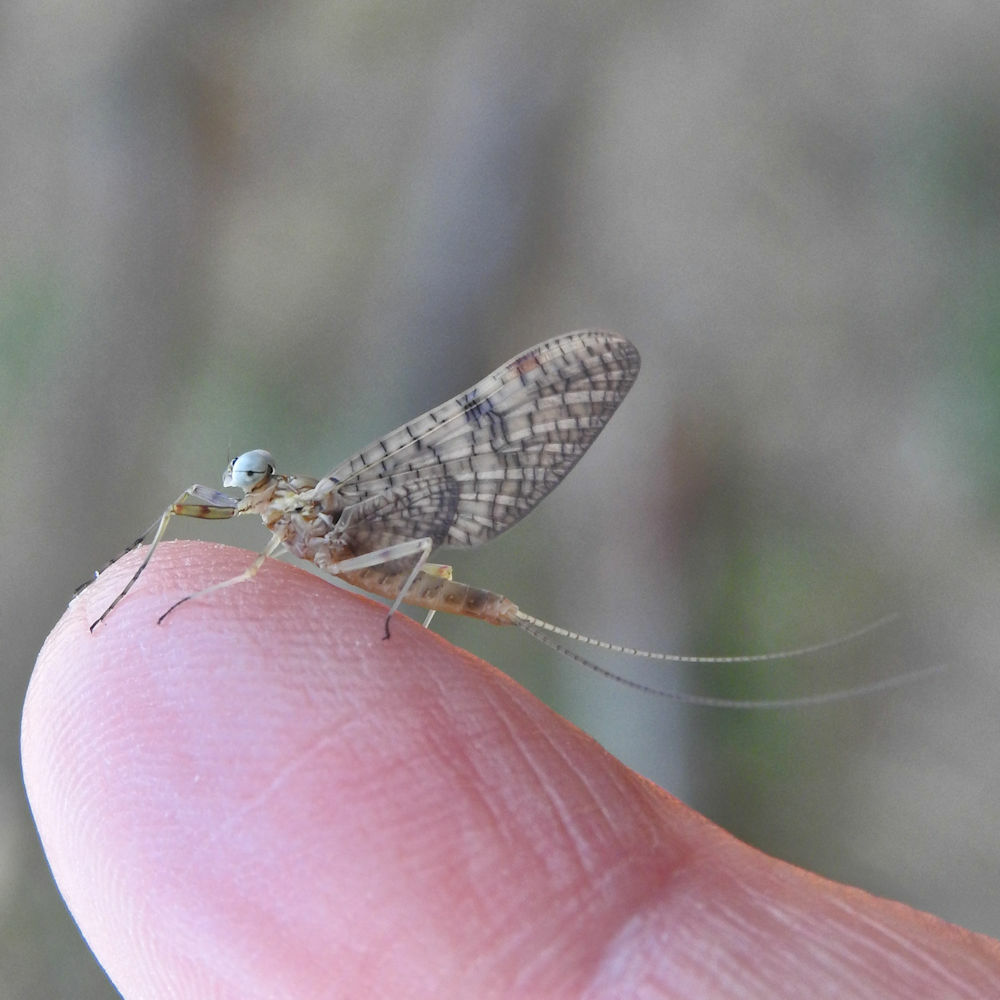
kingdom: Animalia
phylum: Arthropoda
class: Insecta
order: Ephemeroptera
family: Heptageniidae
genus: Stenonema
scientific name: Stenonema femoratum
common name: Dark cahill
